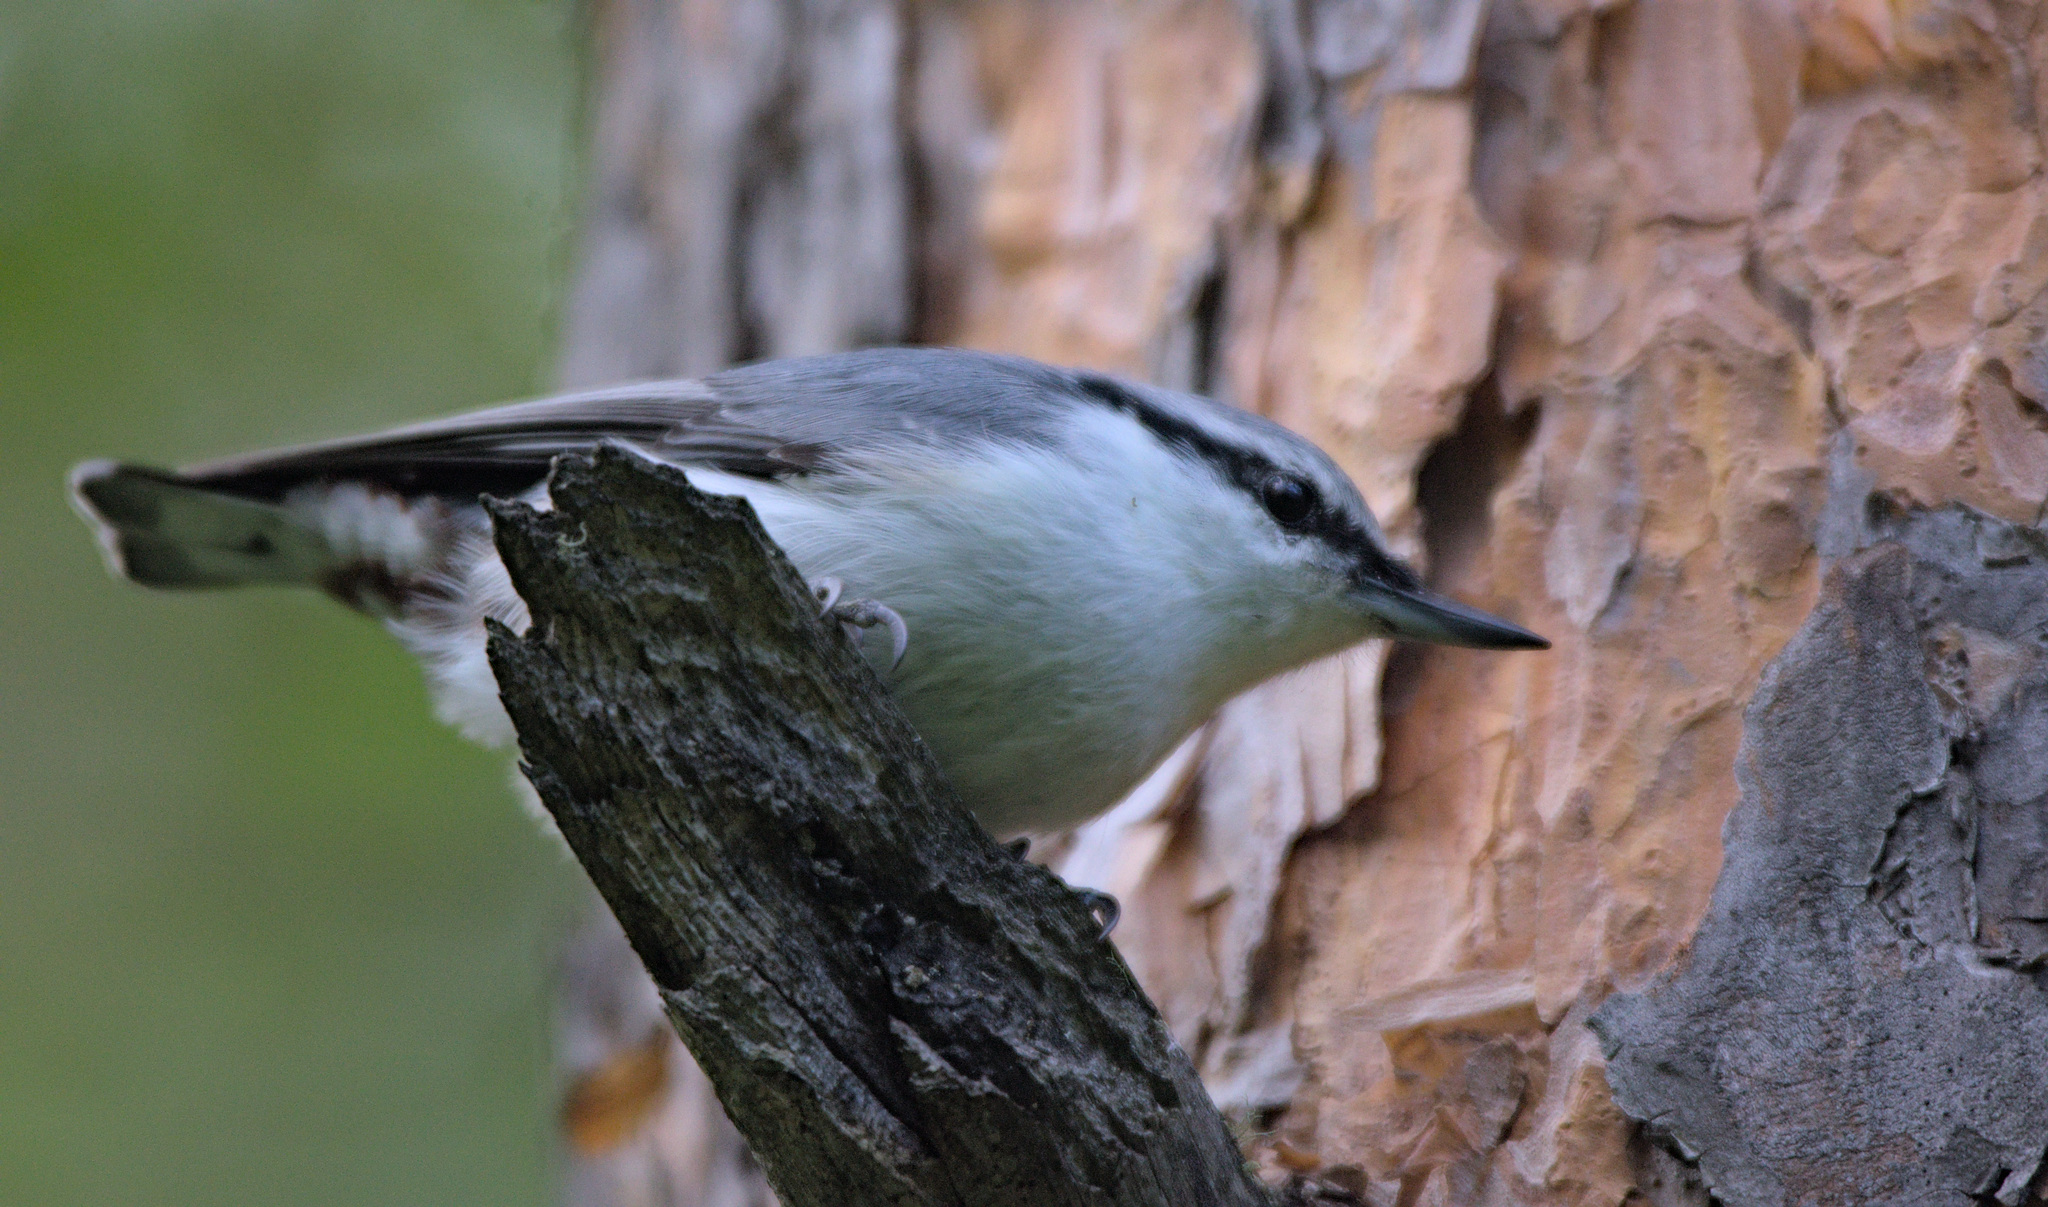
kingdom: Animalia
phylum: Chordata
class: Aves
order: Passeriformes
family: Sittidae
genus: Sitta
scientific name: Sitta europaea
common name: Eurasian nuthatch
